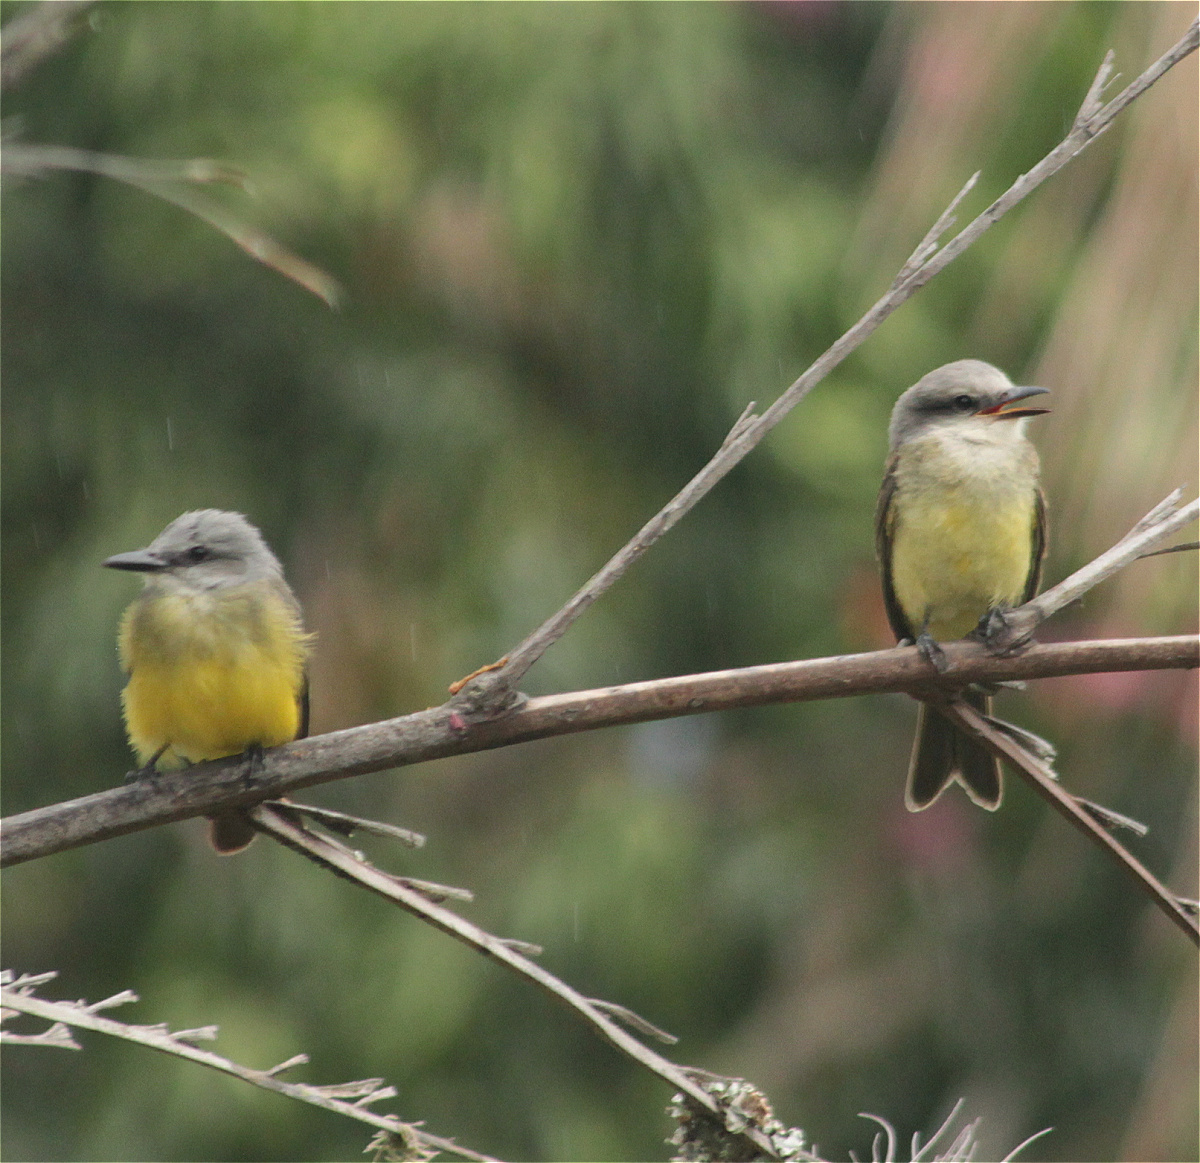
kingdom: Animalia
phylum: Chordata
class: Aves
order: Passeriformes
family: Tyrannidae
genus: Tyrannus
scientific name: Tyrannus melancholicus
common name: Tropical kingbird
